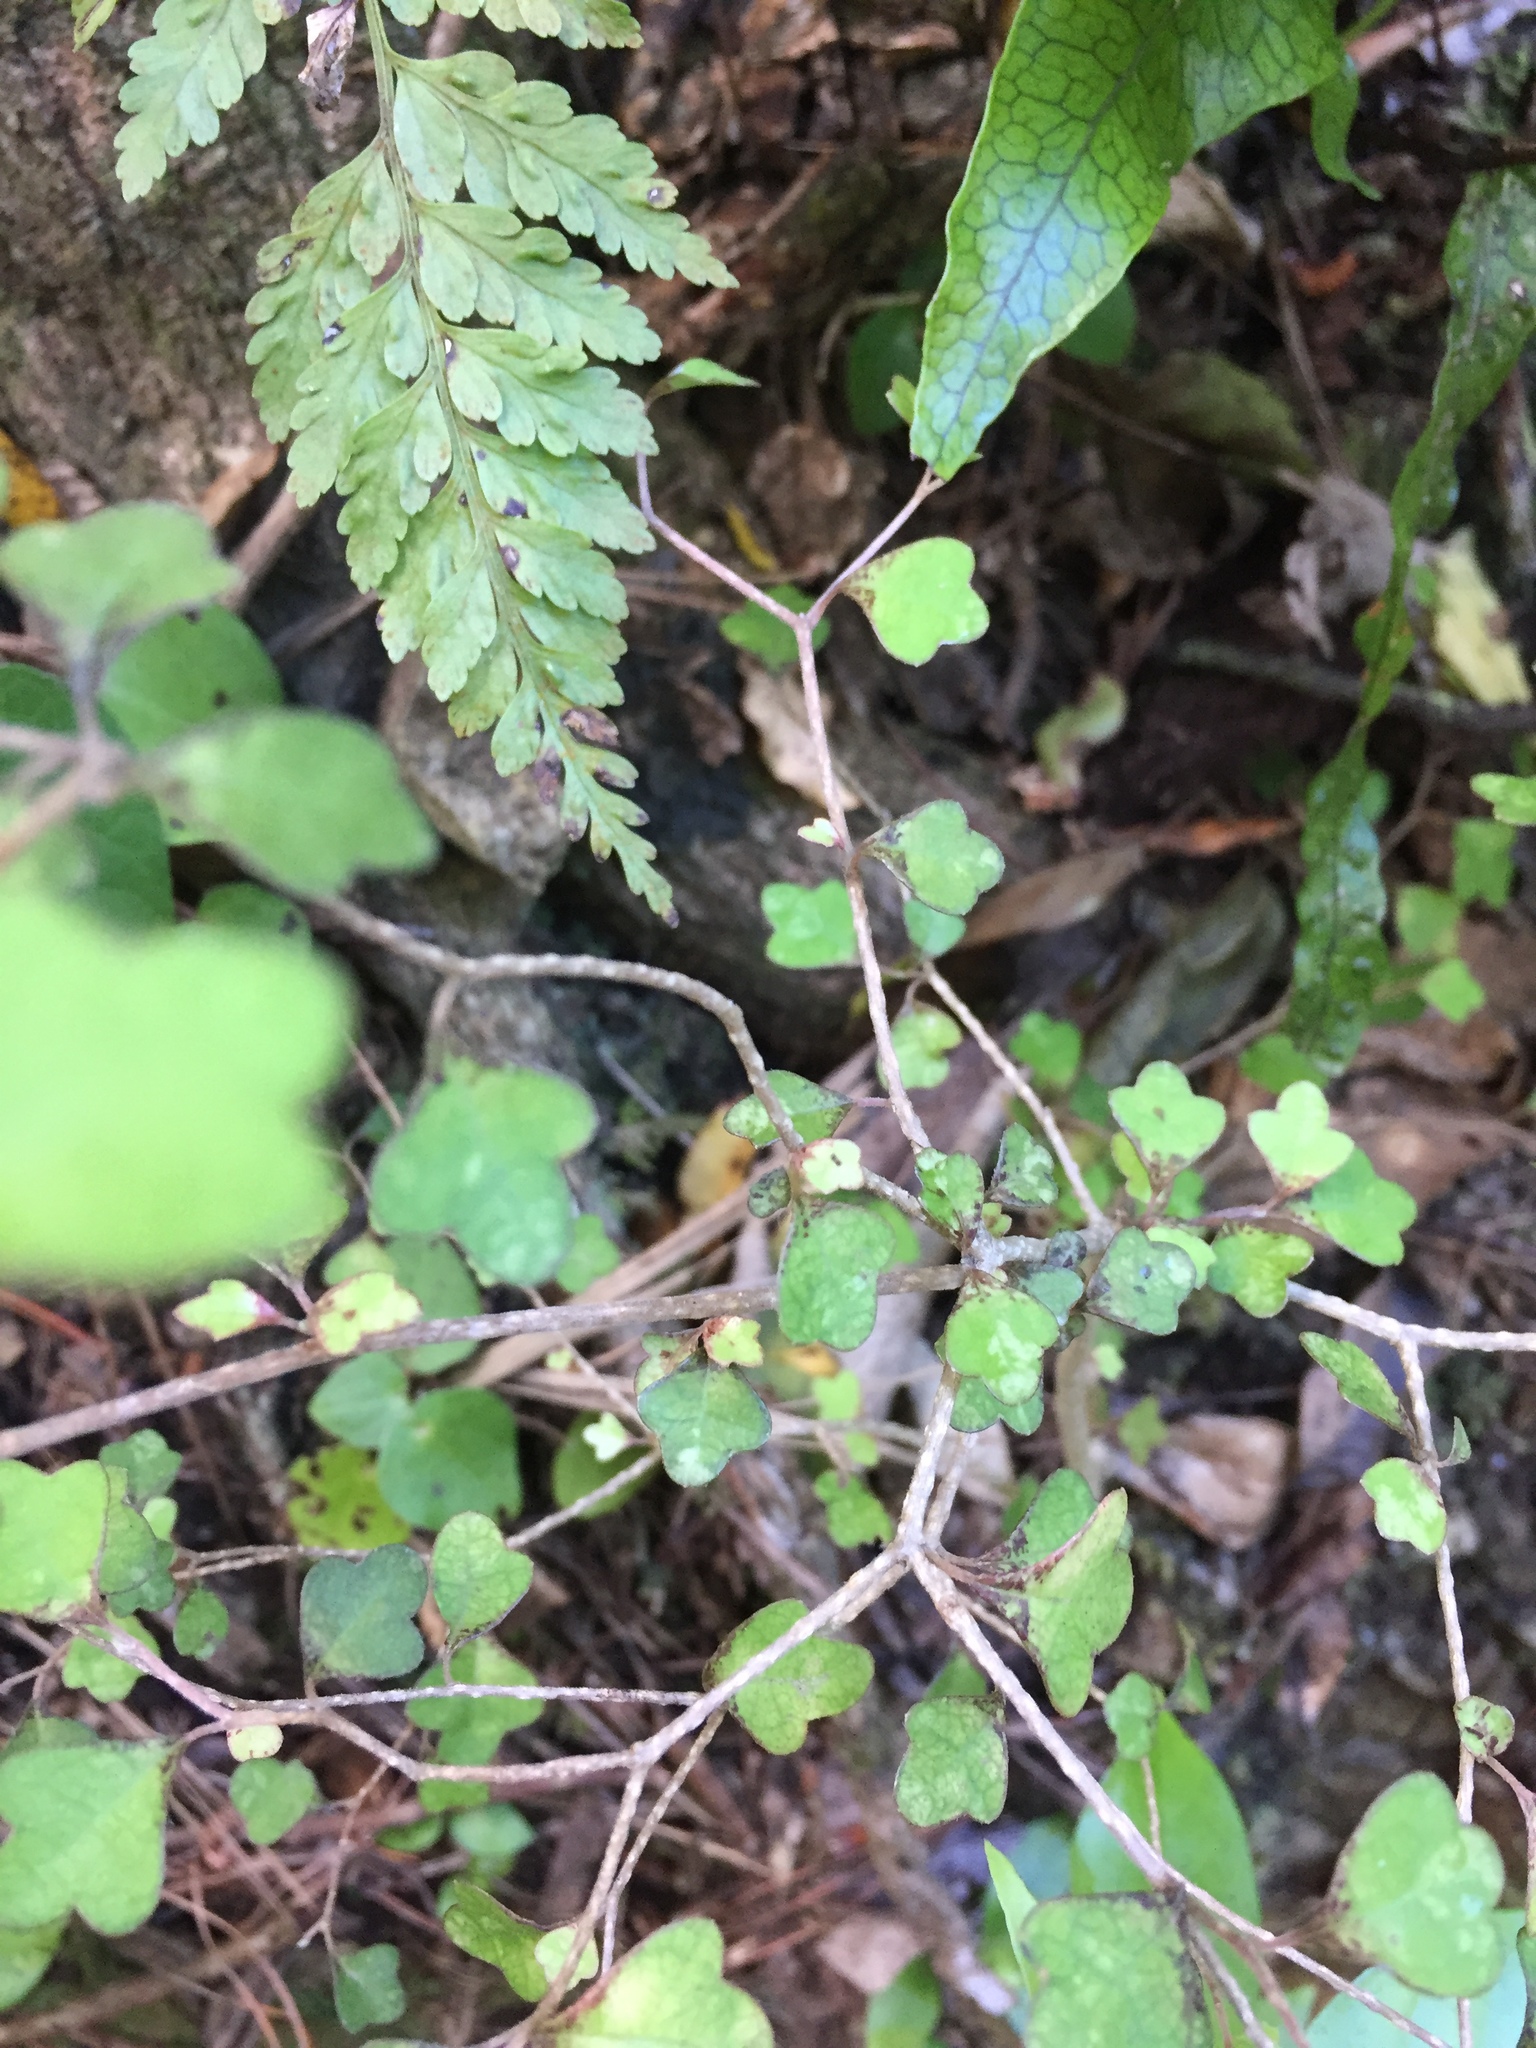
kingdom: Plantae
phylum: Tracheophyta
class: Magnoliopsida
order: Apiales
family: Pennantiaceae
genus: Pennantia
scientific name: Pennantia corymbosa
